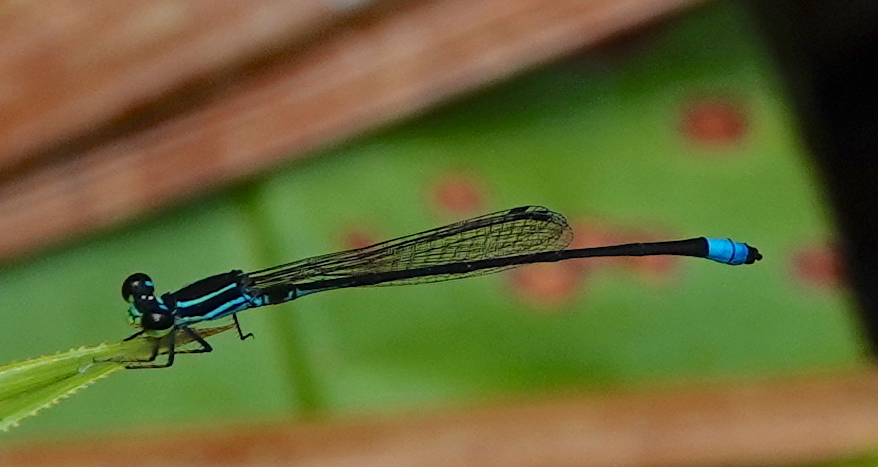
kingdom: Animalia
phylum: Arthropoda
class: Insecta
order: Odonata
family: Coenagrionidae
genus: Argiocnemis
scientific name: Argiocnemis rubescens
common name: Red-tipped shadefly
